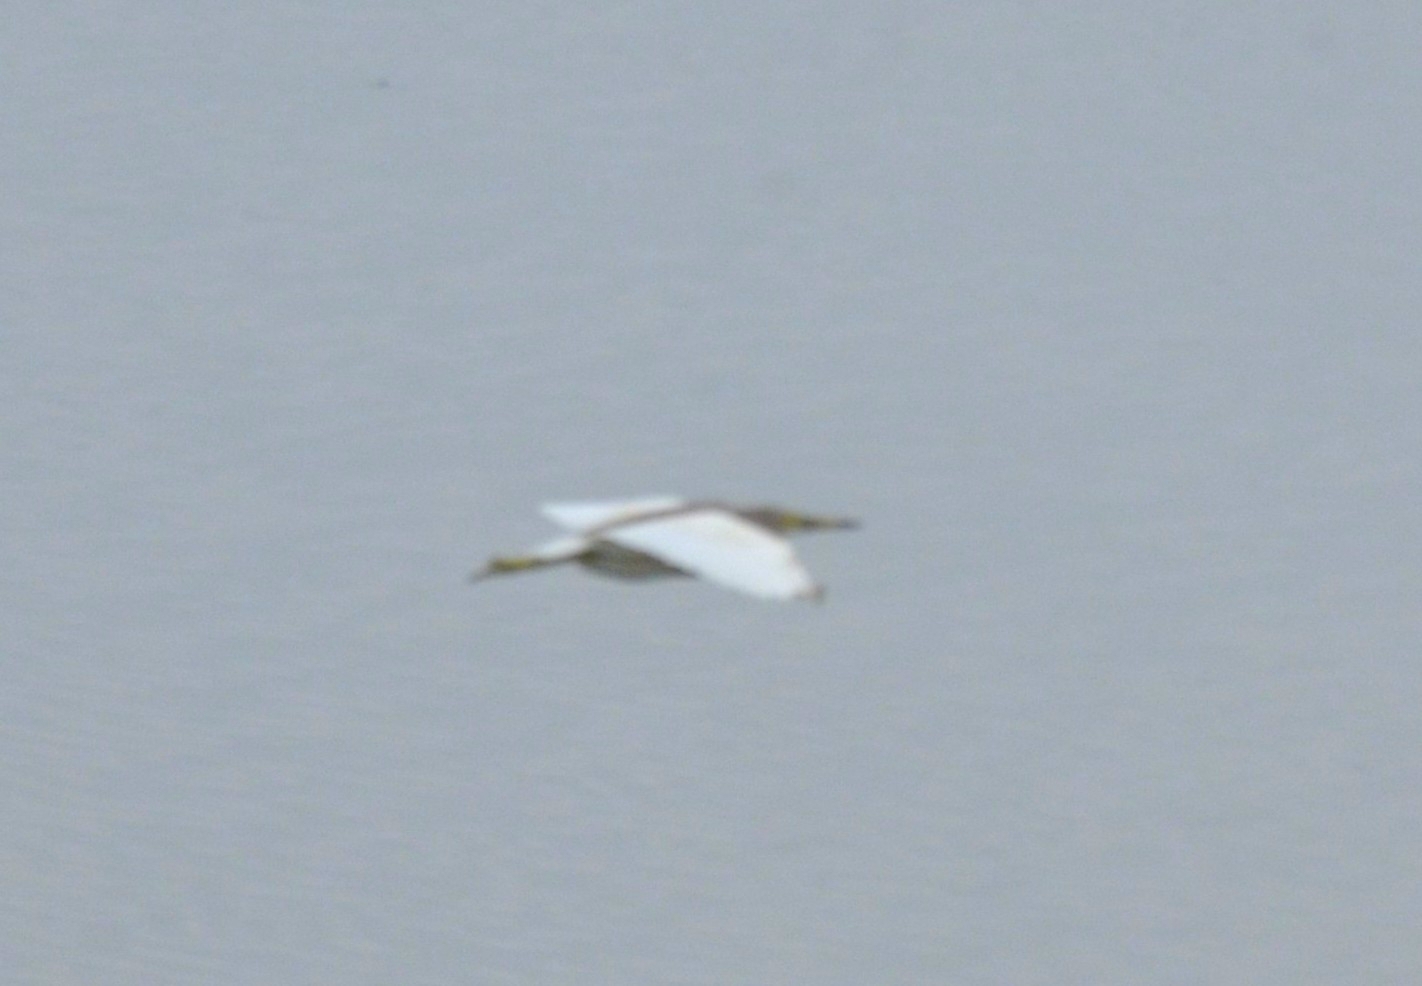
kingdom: Animalia
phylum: Chordata
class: Aves
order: Pelecaniformes
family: Ardeidae
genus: Ardeola
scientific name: Ardeola grayii
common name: Indian pond heron
